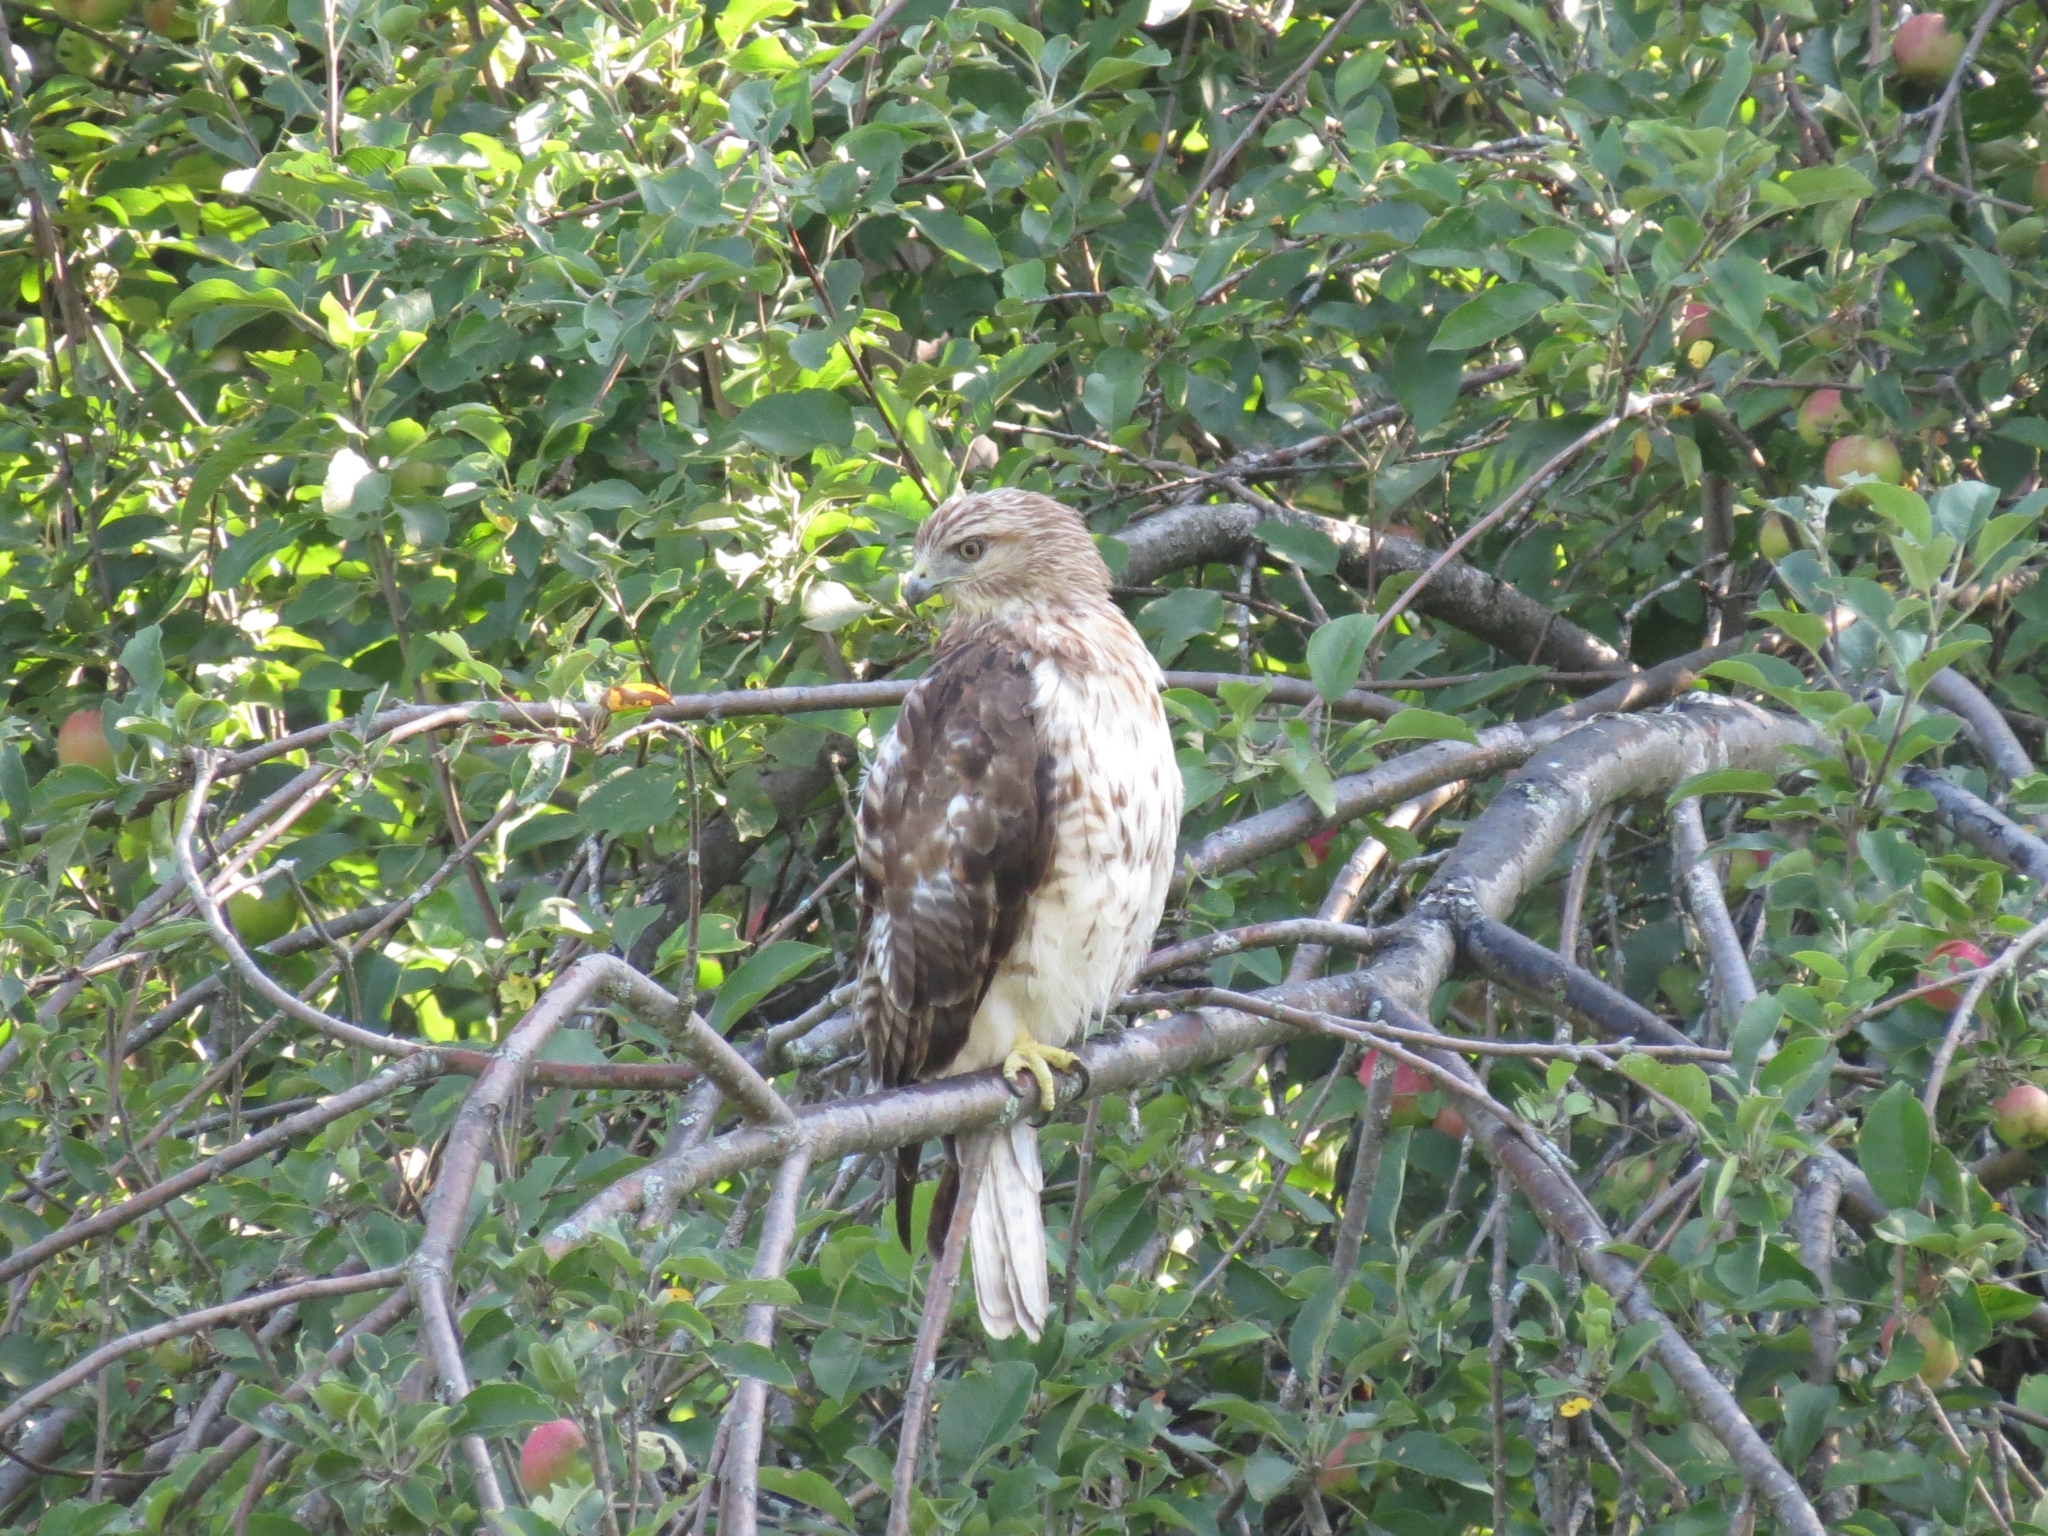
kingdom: Animalia
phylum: Chordata
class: Aves
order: Accipitriformes
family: Accipitridae
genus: Buteo
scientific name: Buteo jamaicensis
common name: Red-tailed hawk
